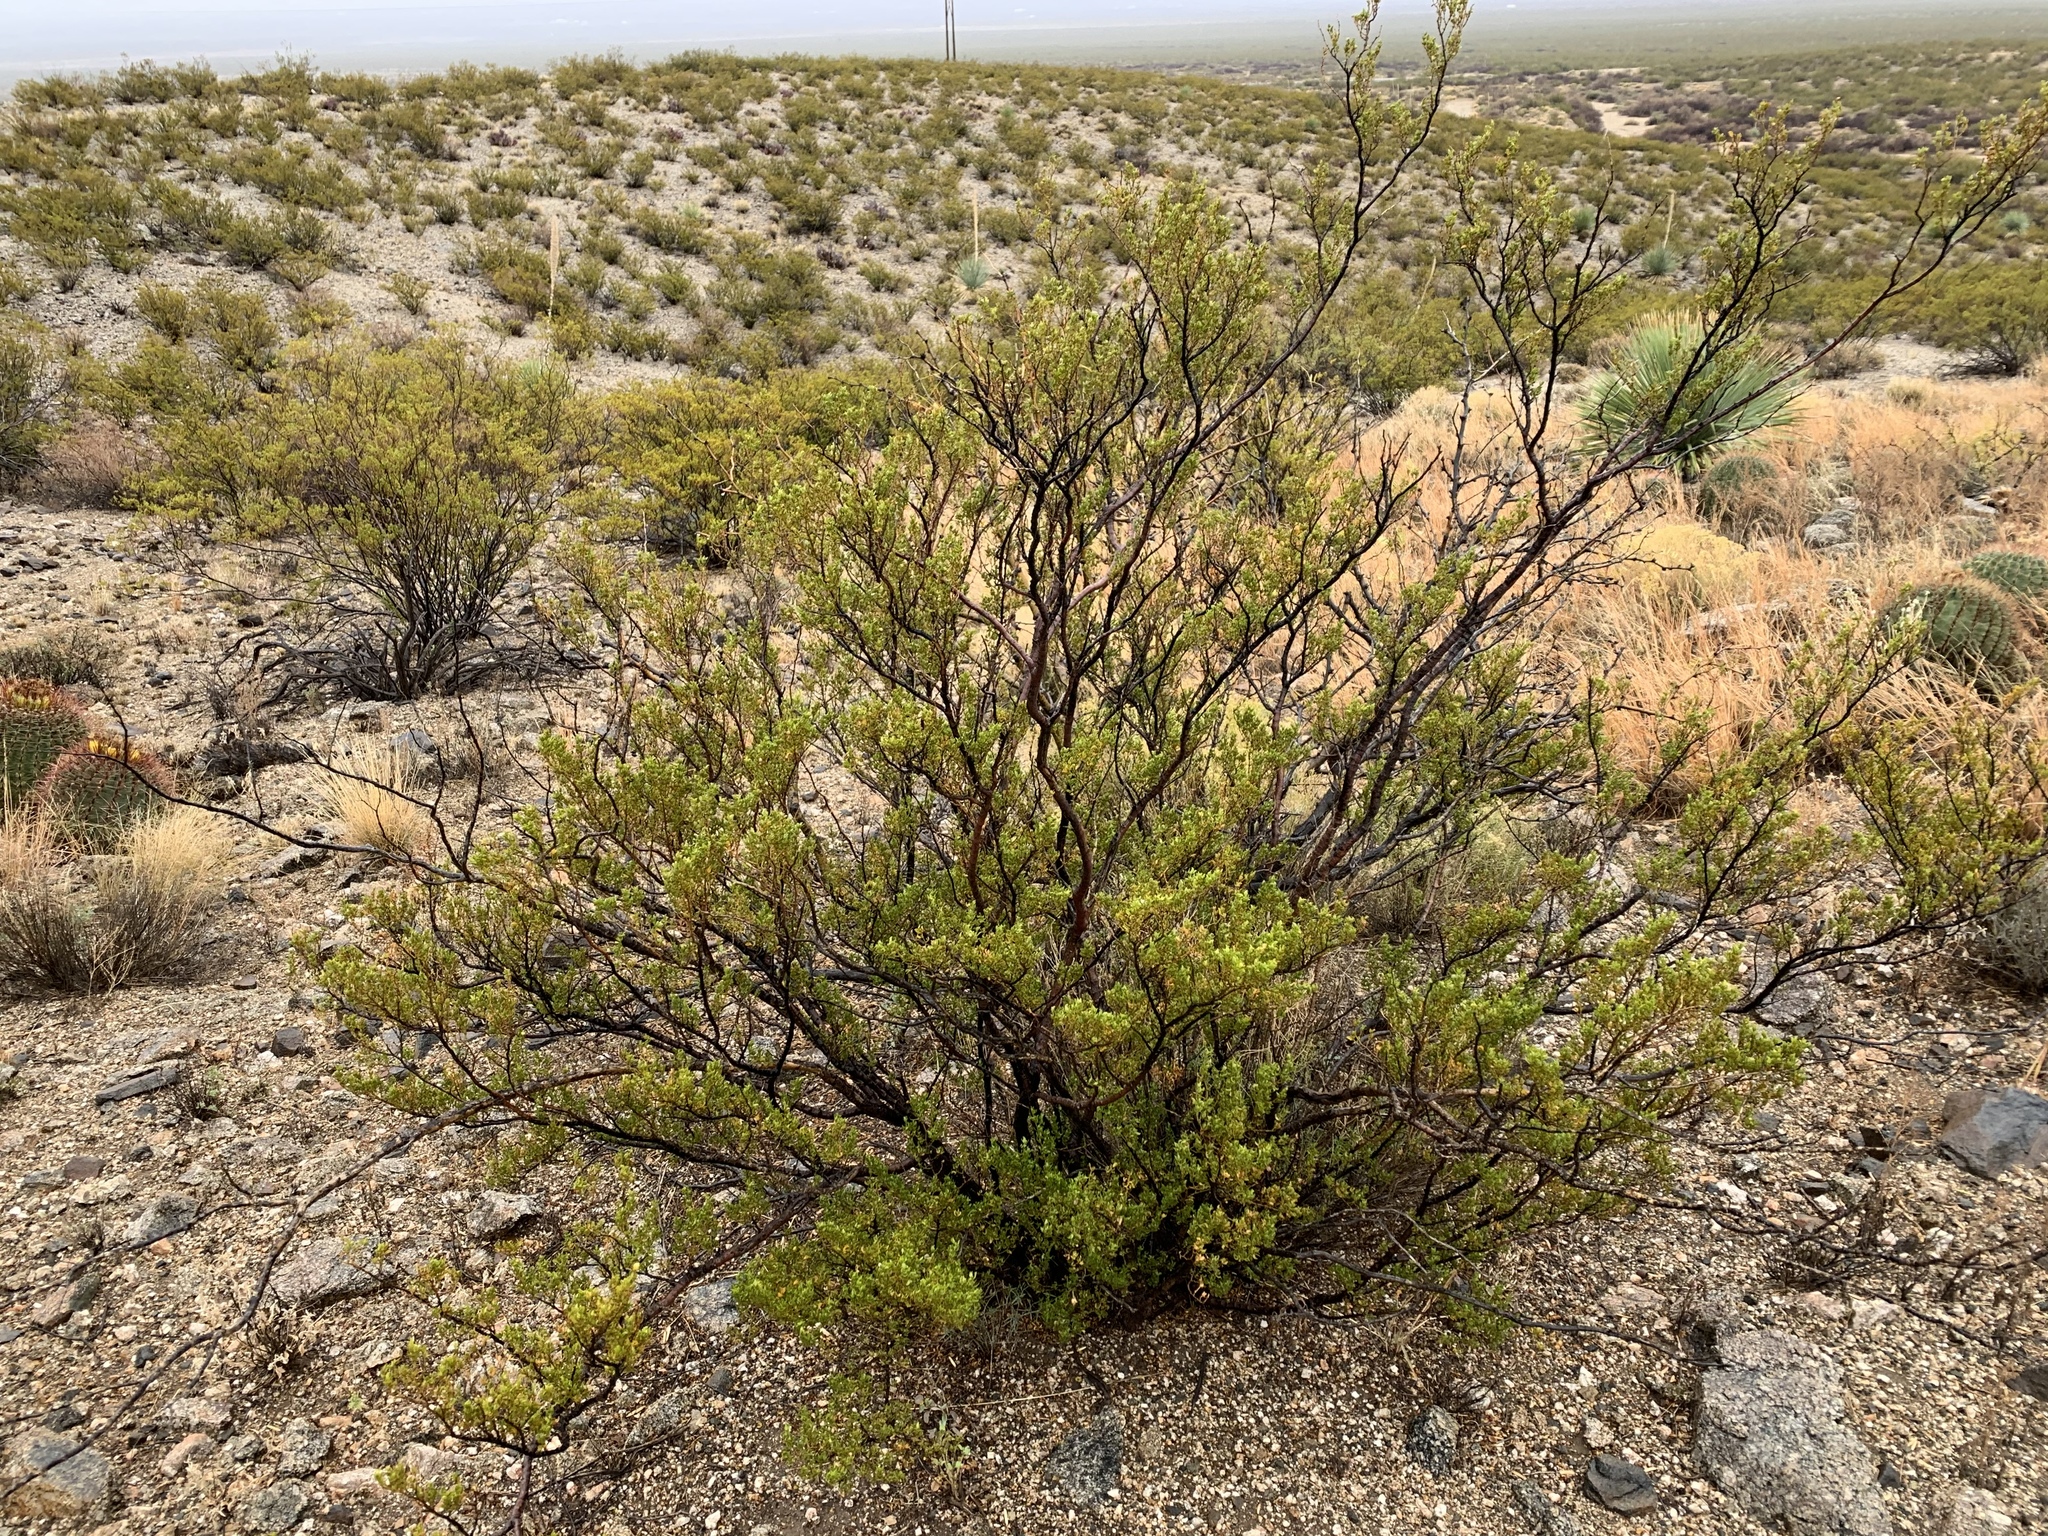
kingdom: Plantae
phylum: Tracheophyta
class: Magnoliopsida
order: Zygophyllales
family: Zygophyllaceae
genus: Larrea
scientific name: Larrea tridentata
